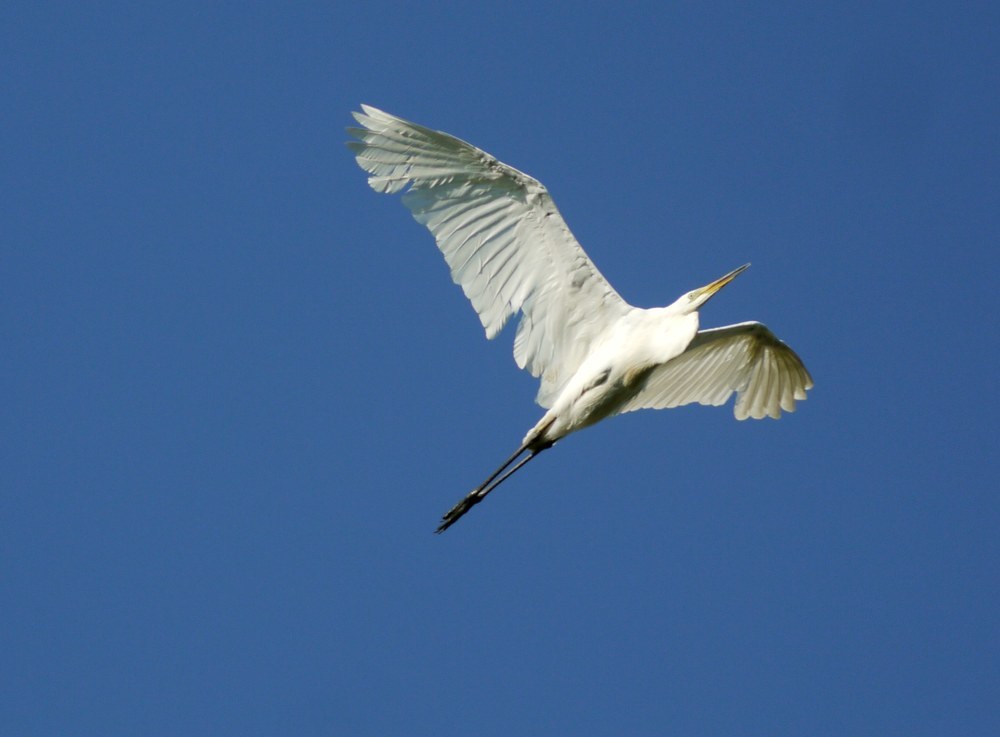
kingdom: Animalia
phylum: Chordata
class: Aves
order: Pelecaniformes
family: Ardeidae
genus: Ardea
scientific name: Ardea alba
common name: Great egret
